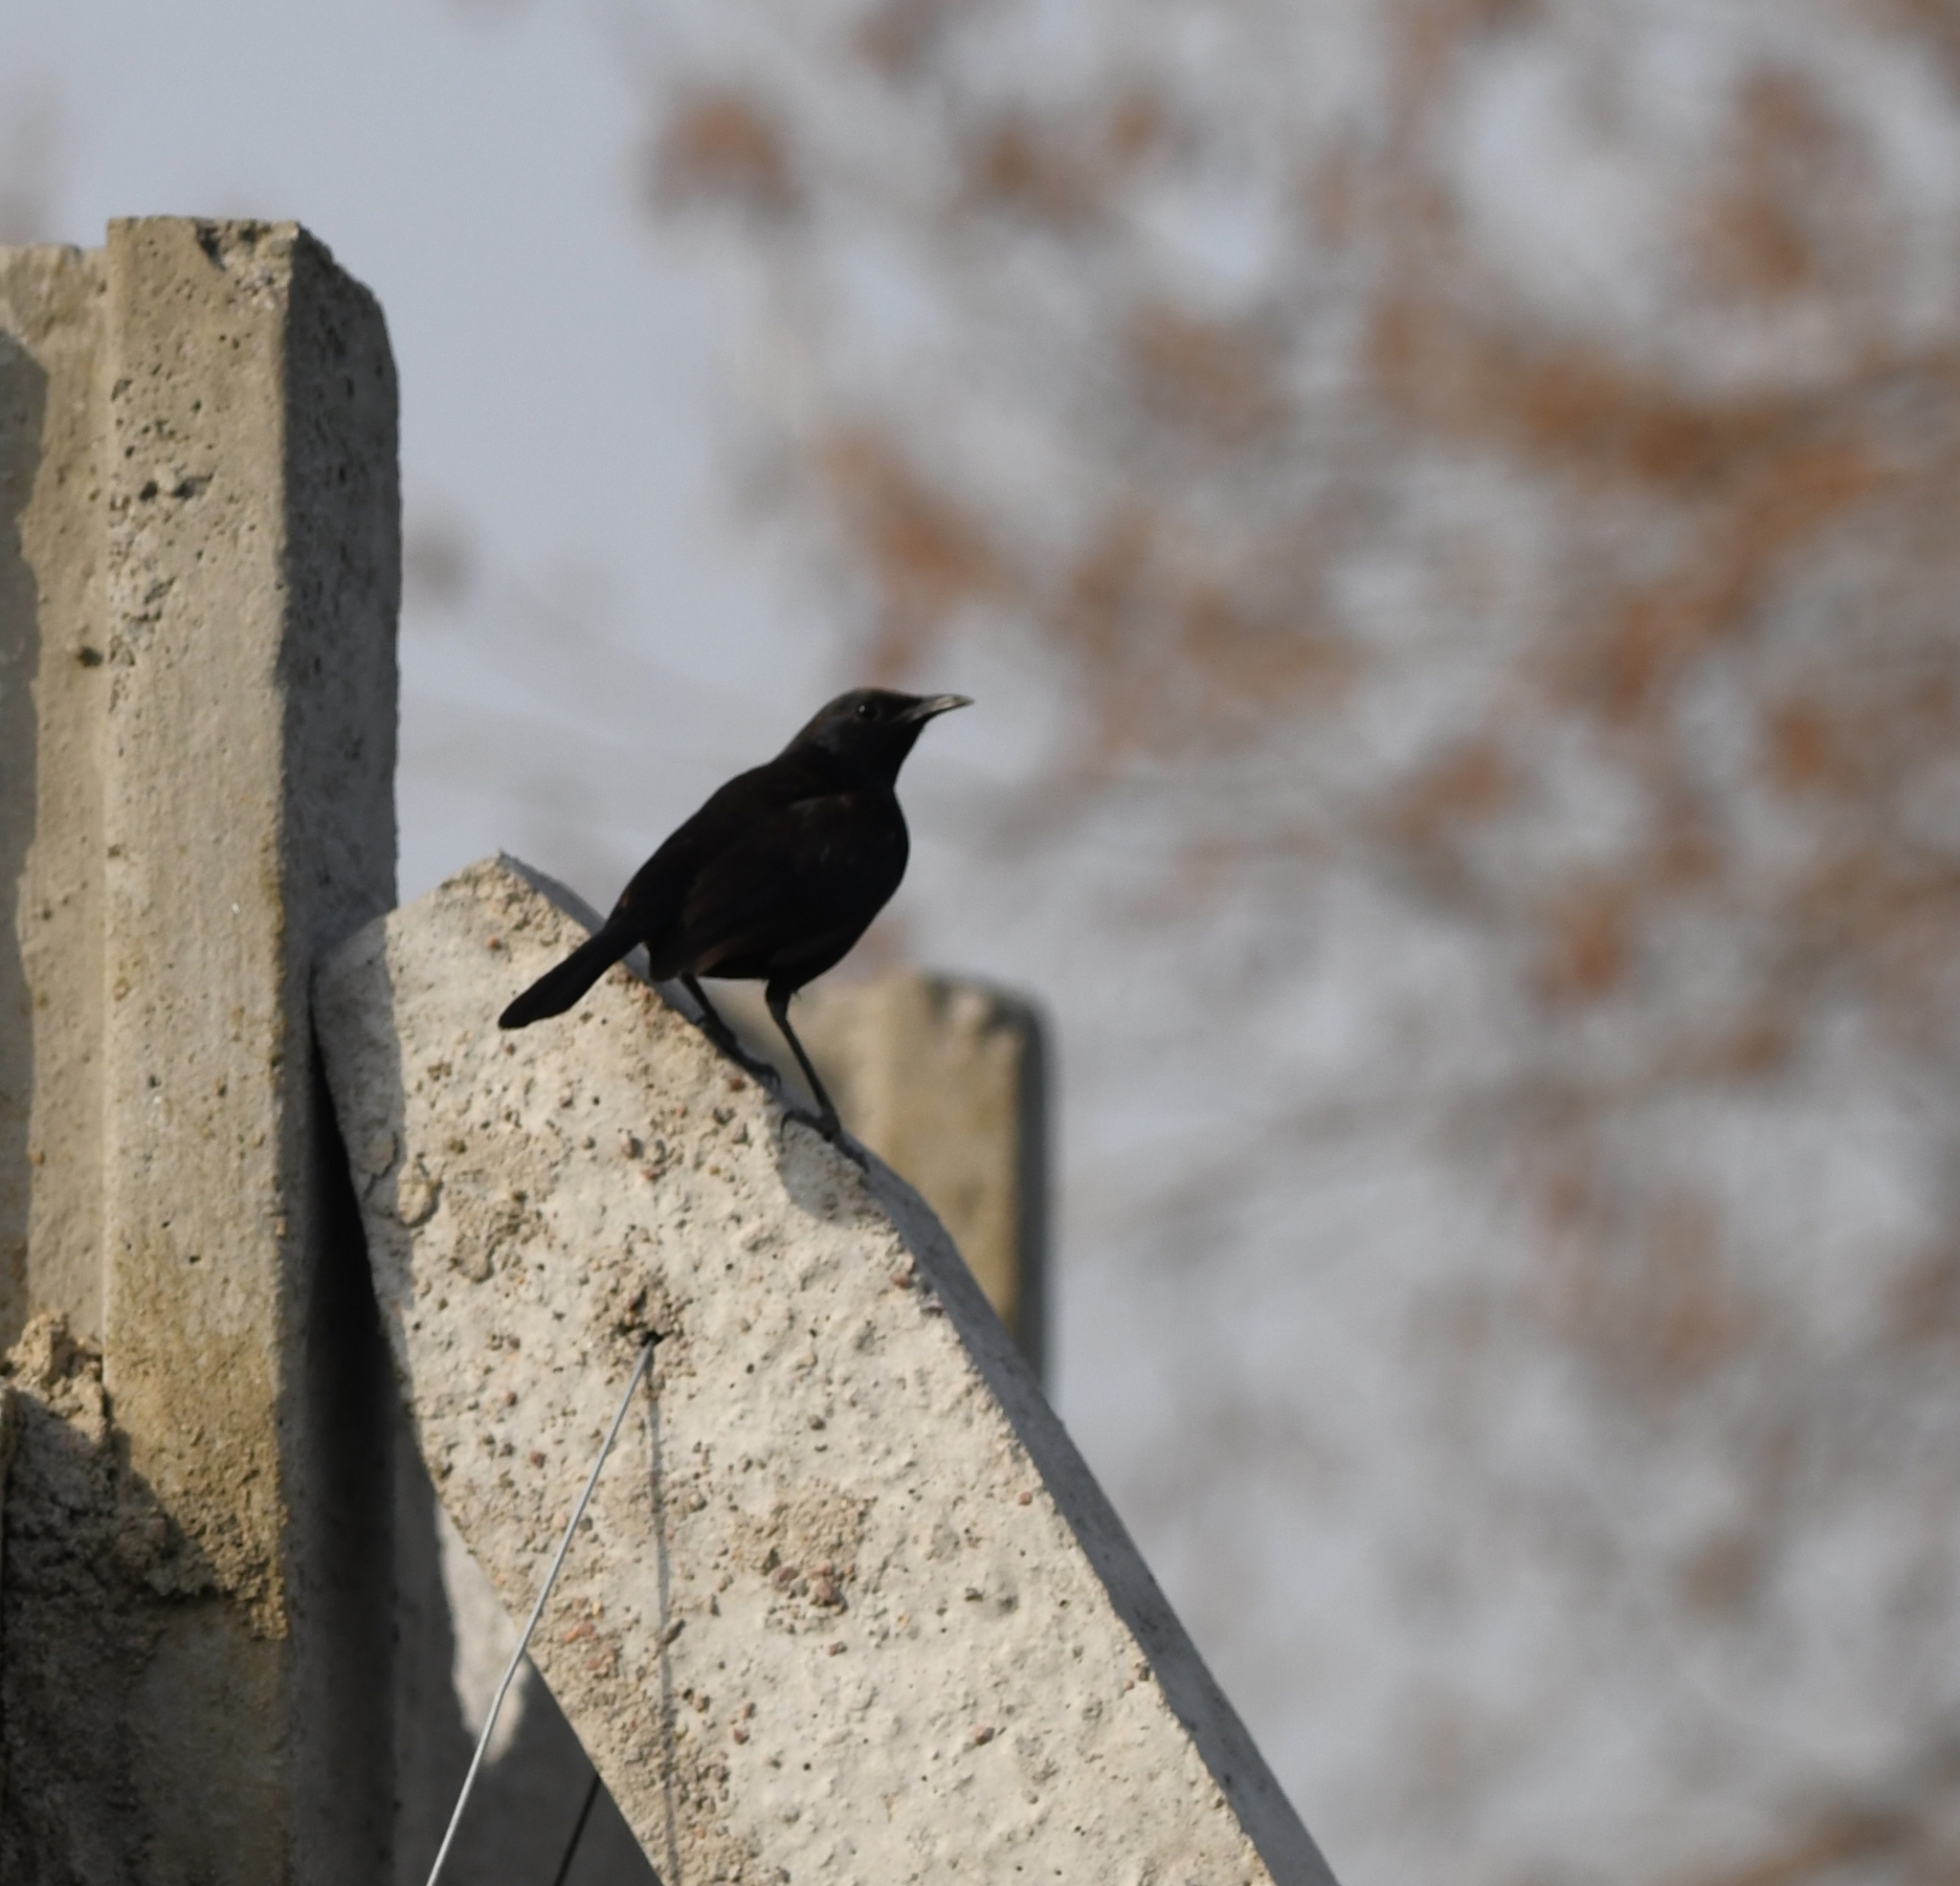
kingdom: Animalia
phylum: Chordata
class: Aves
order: Passeriformes
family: Muscicapidae
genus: Saxicoloides
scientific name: Saxicoloides fulicatus
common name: Indian robin
